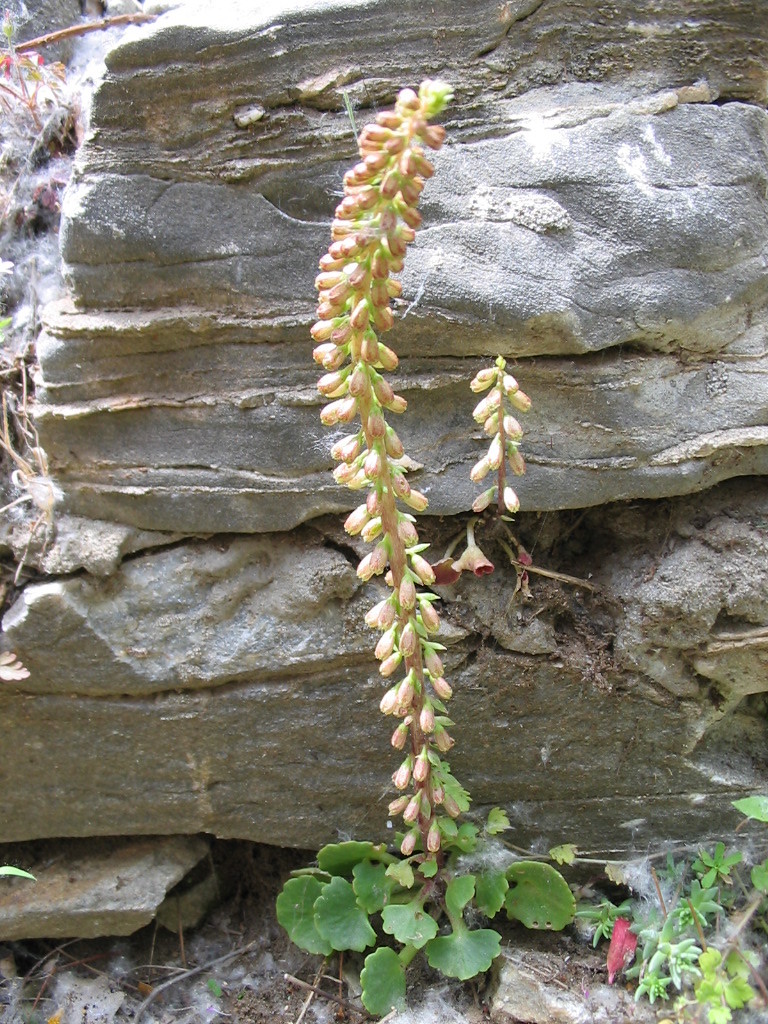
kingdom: Plantae
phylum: Tracheophyta
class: Magnoliopsida
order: Saxifragales
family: Crassulaceae
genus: Umbilicus
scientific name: Umbilicus rupestris
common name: Navelwort
